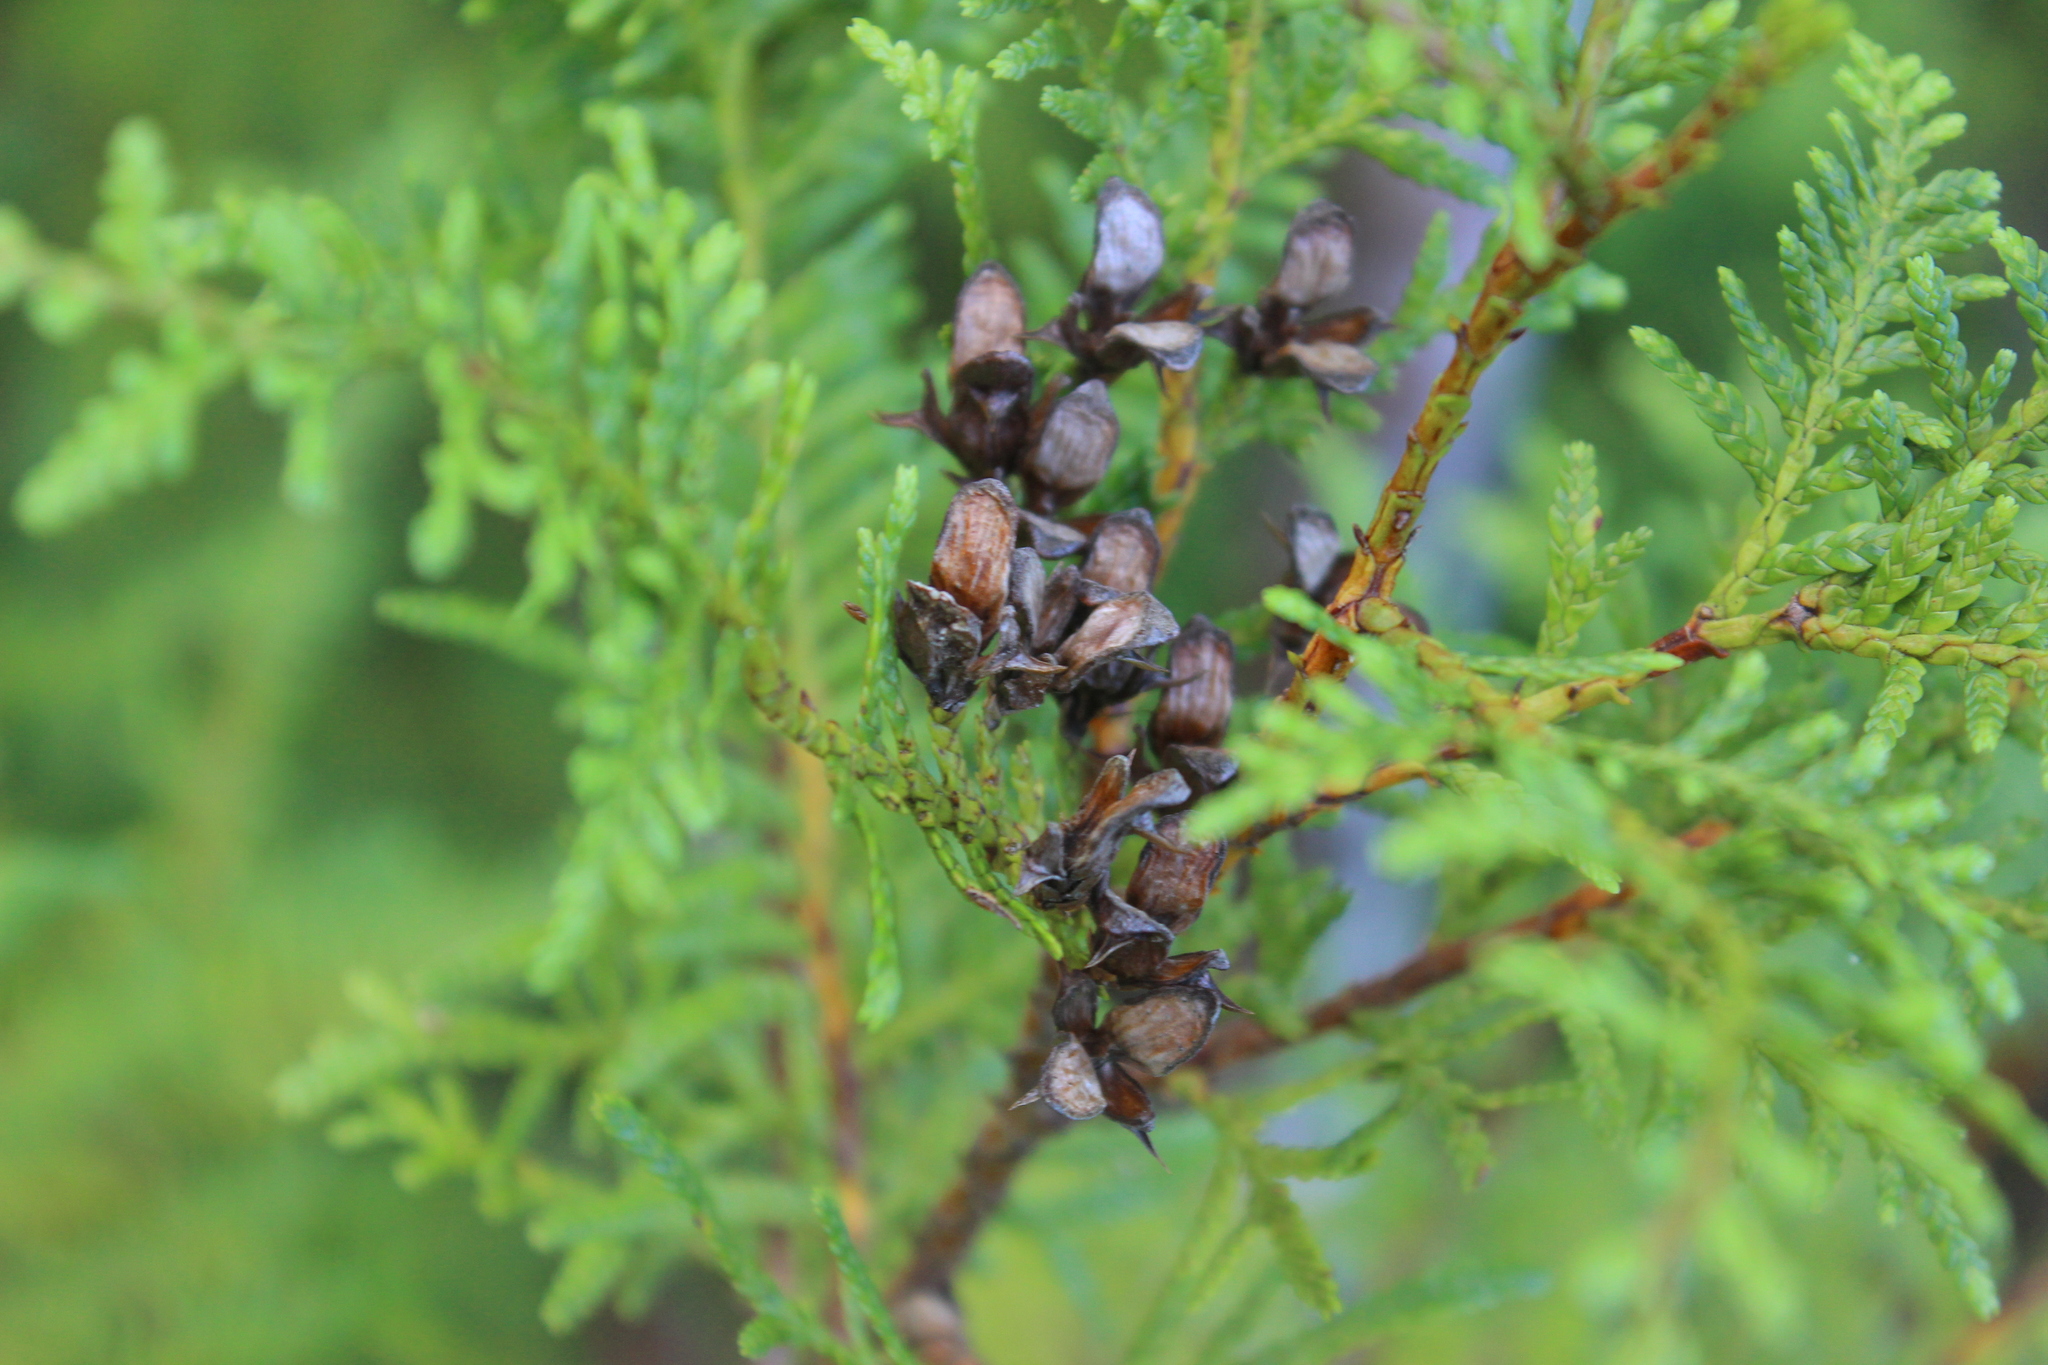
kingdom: Plantae
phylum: Tracheophyta
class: Pinopsida
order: Pinales
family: Cupressaceae
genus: Libocedrus
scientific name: Libocedrus plumosa
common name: New zealand cedar
